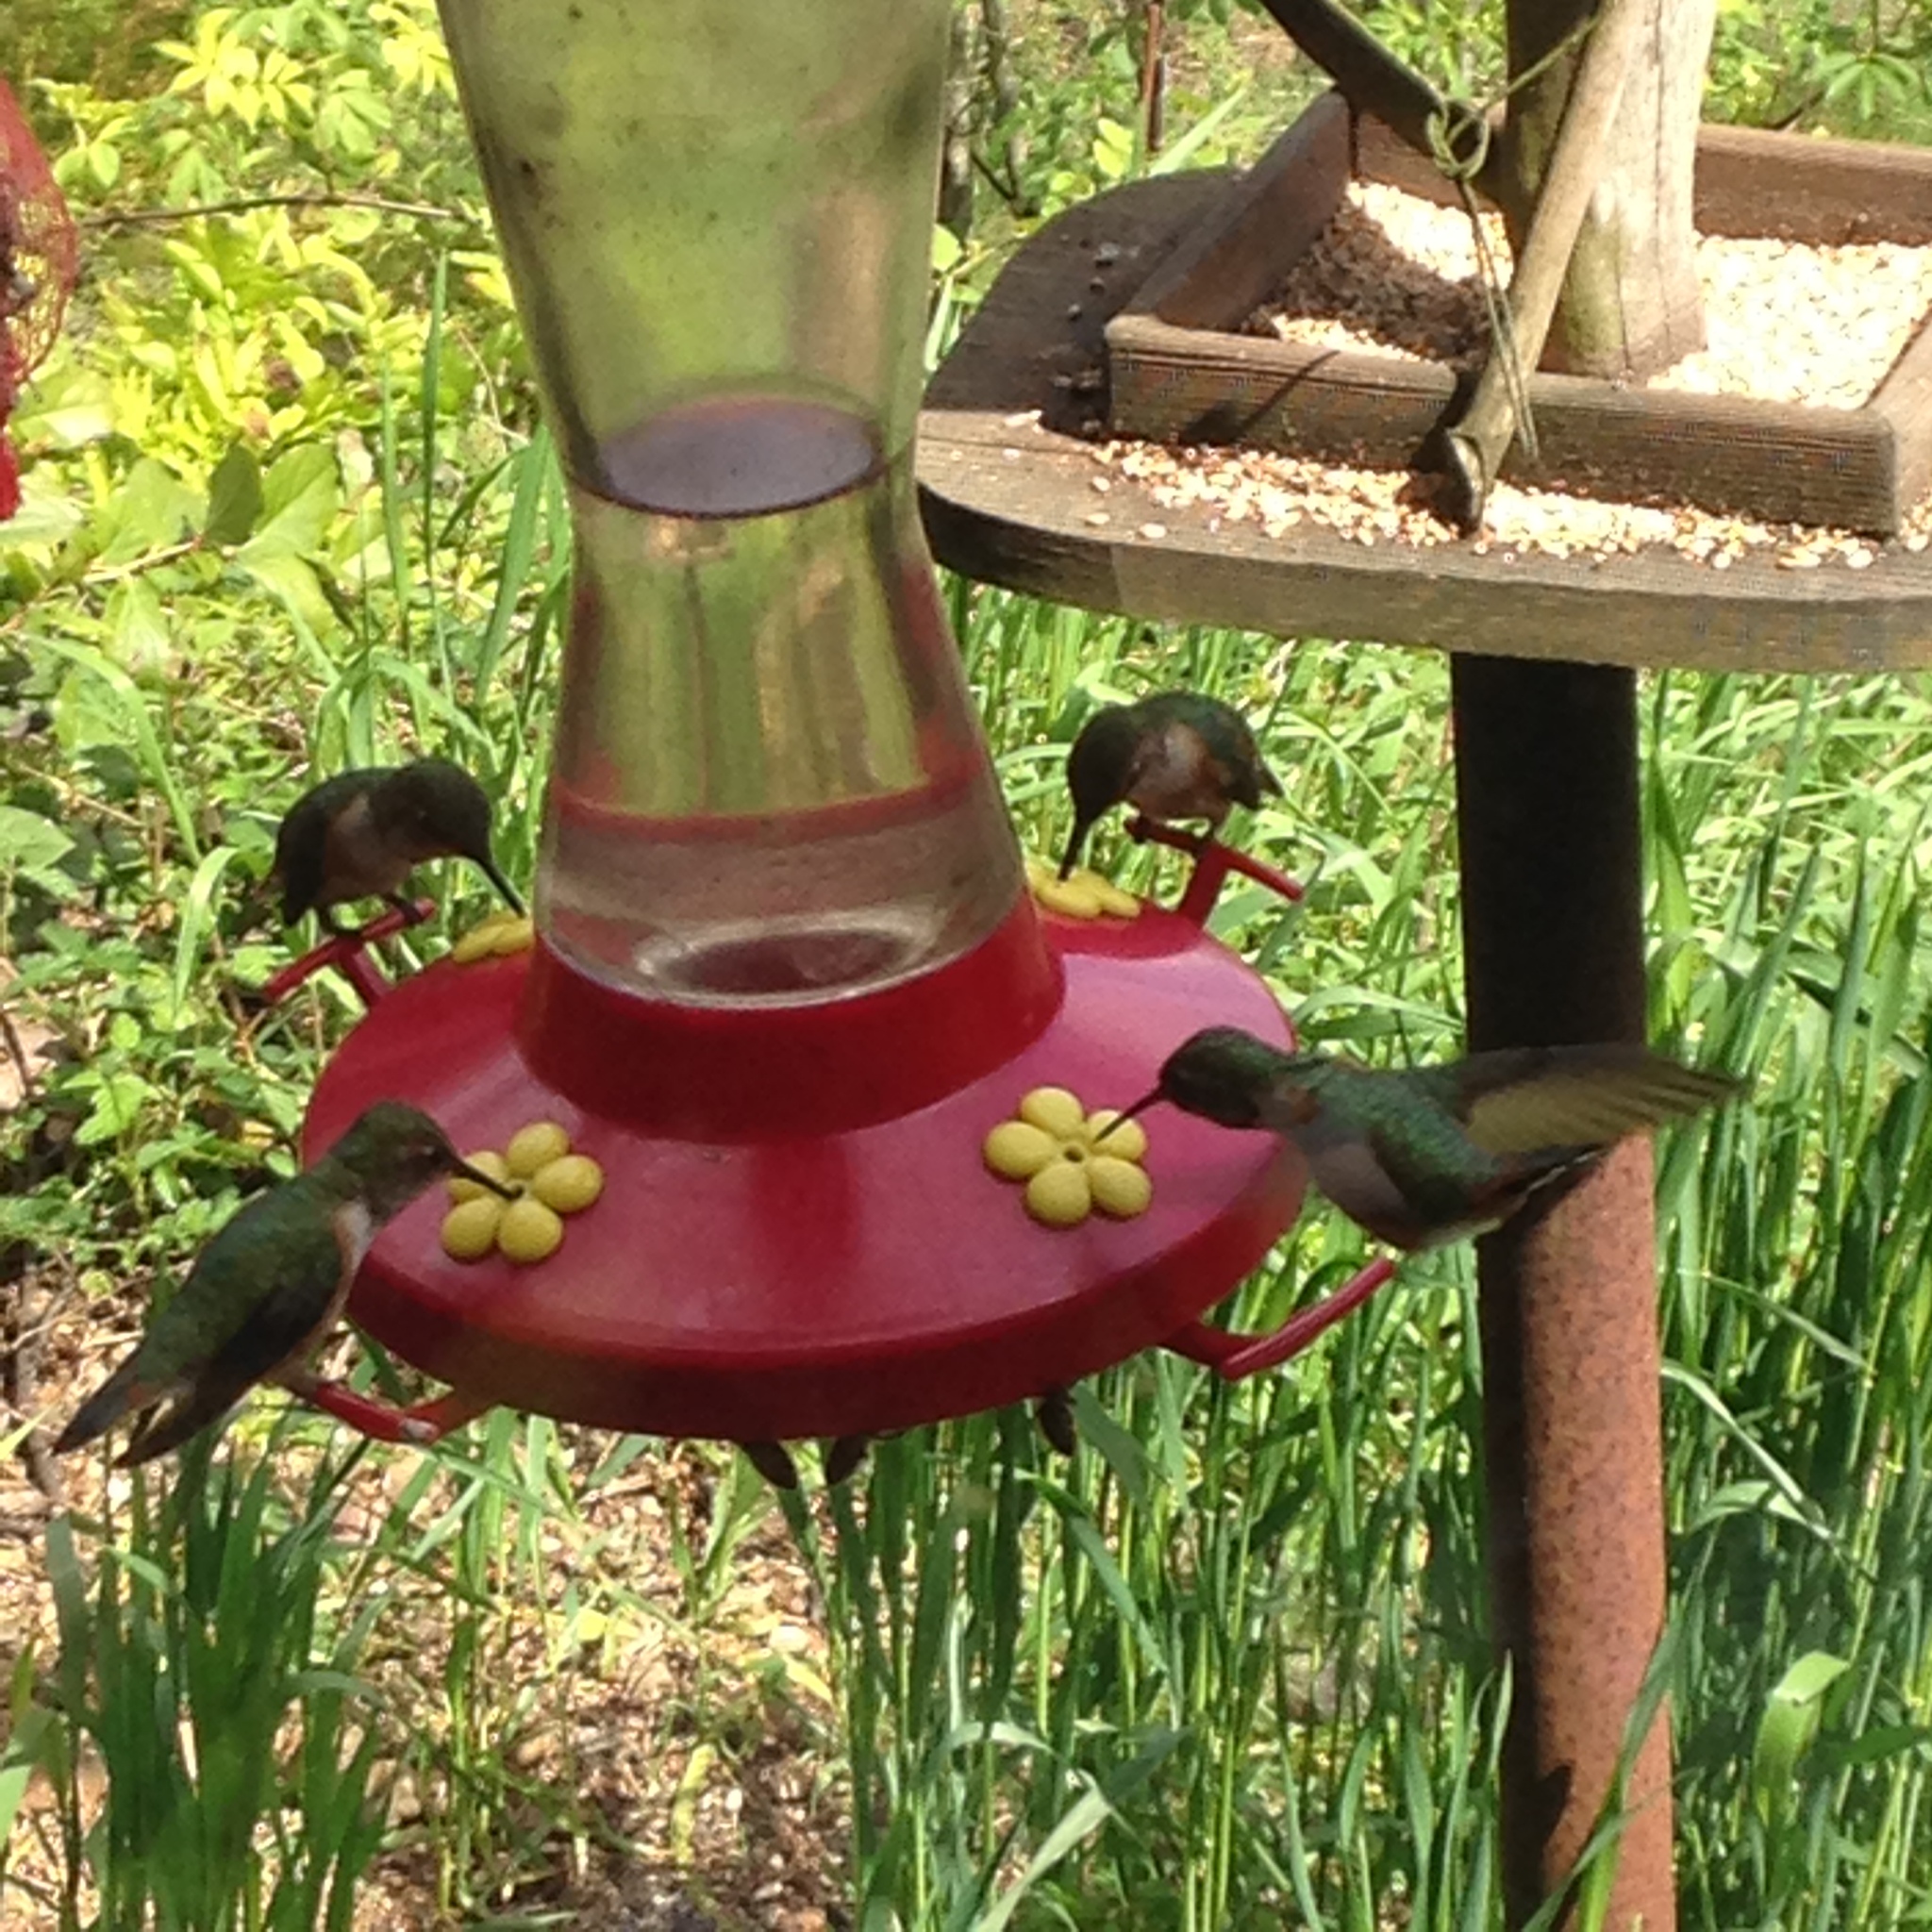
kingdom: Animalia
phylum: Chordata
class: Aves
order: Apodiformes
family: Trochilidae
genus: Selasphorus
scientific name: Selasphorus rufus
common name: Rufous hummingbird
